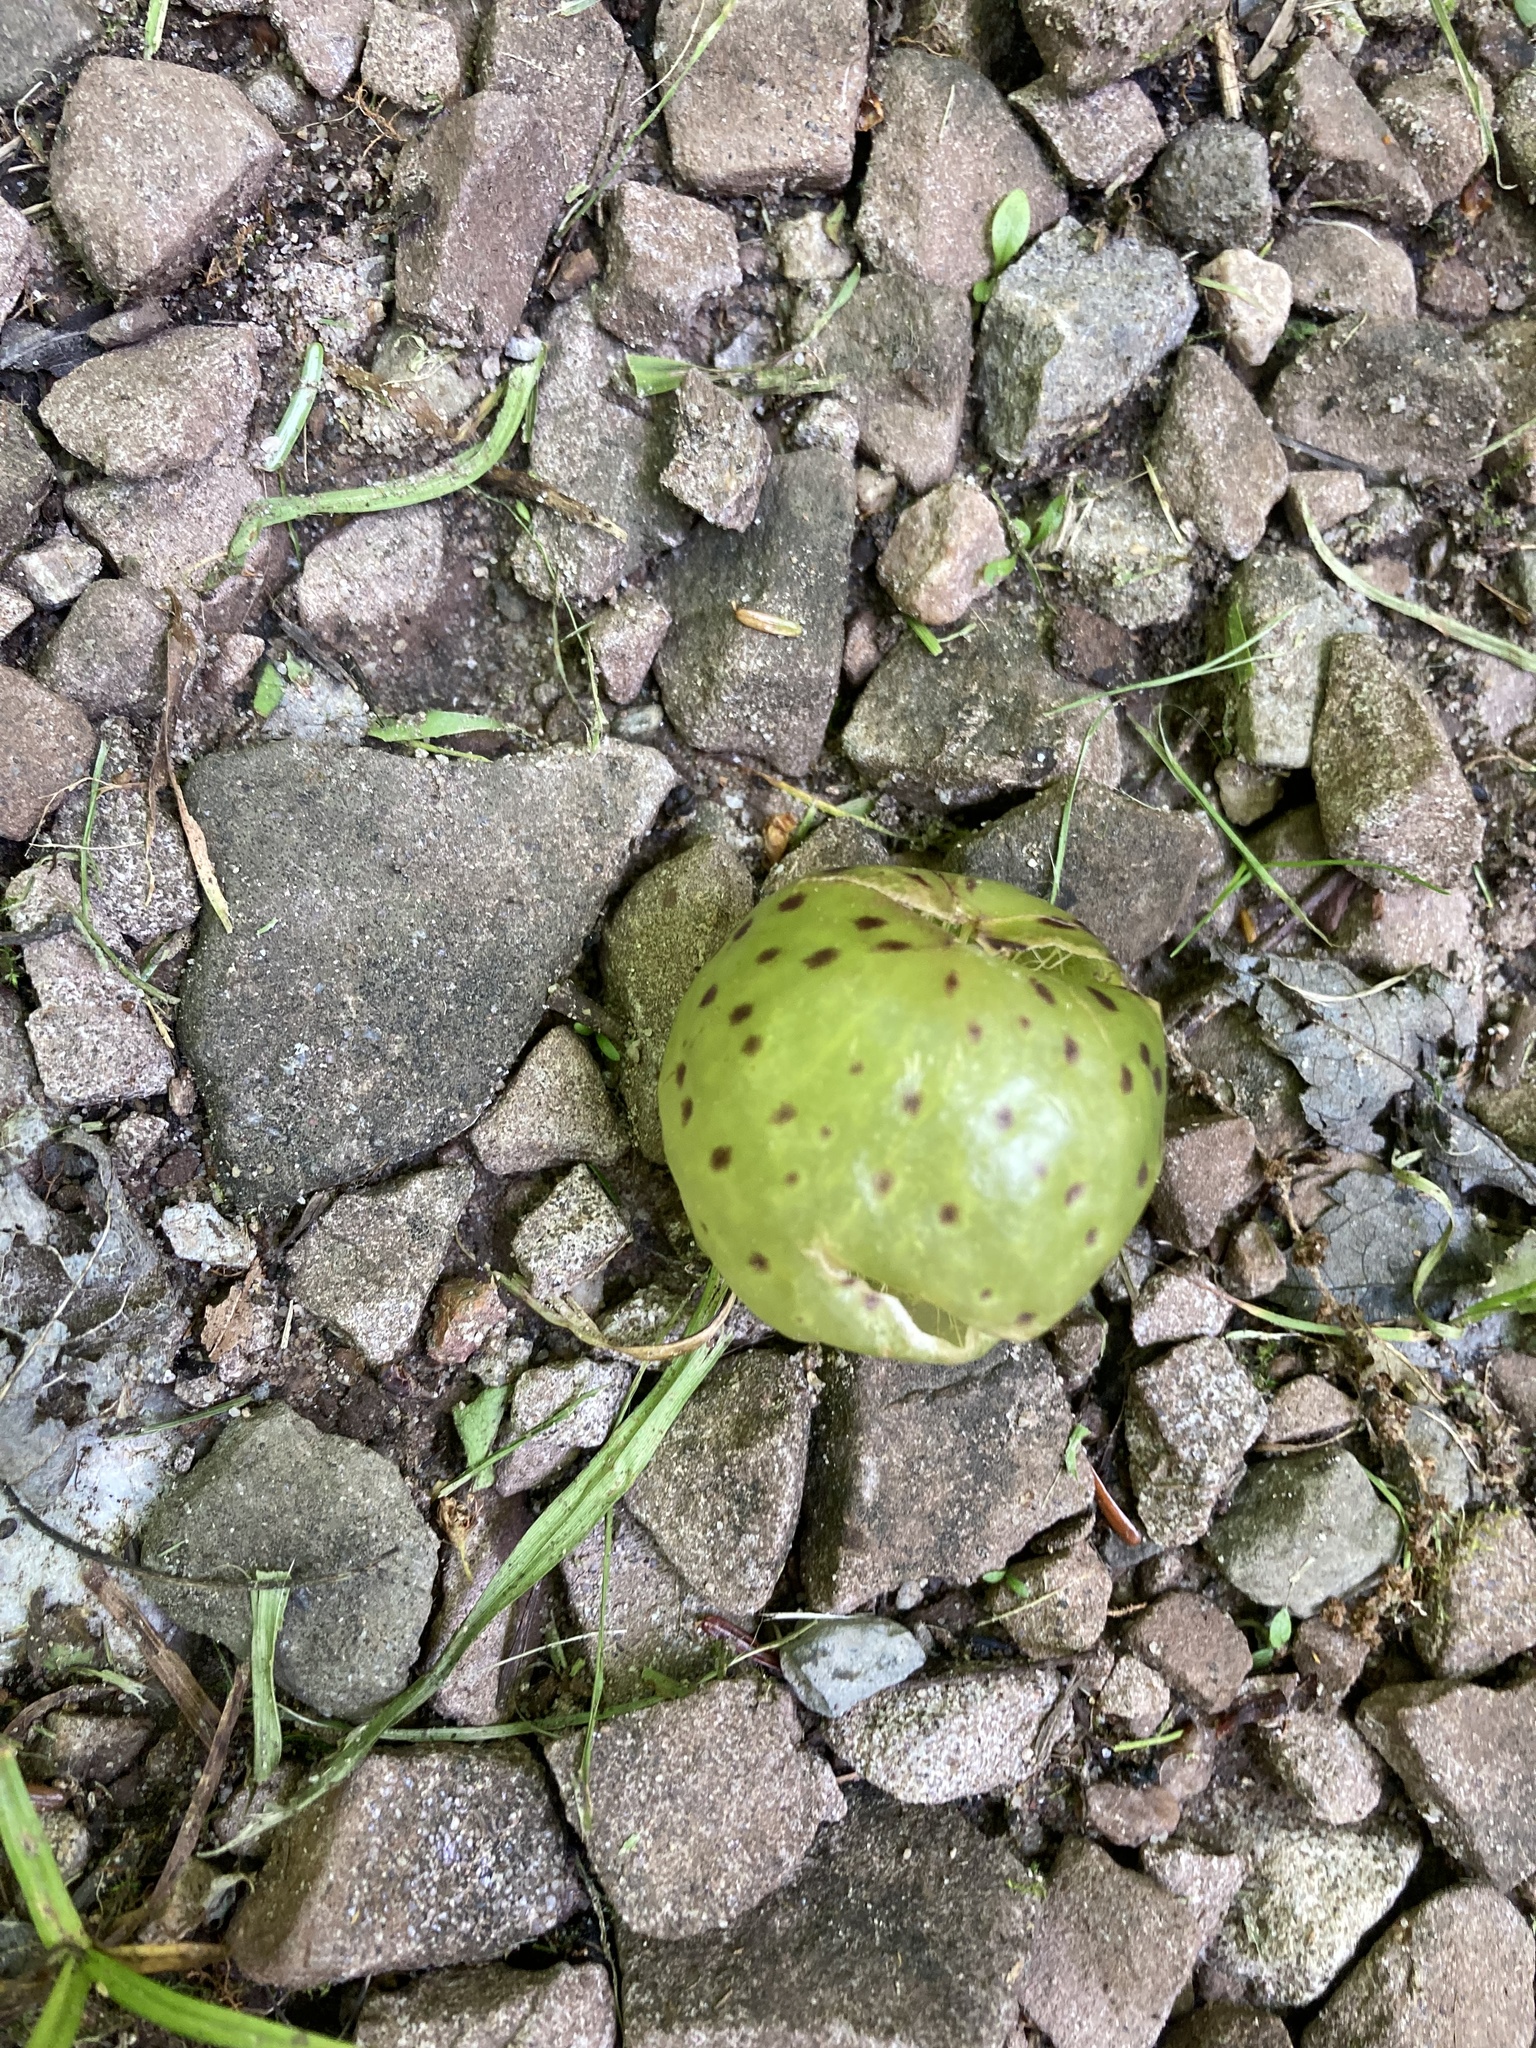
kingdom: Animalia
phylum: Arthropoda
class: Insecta
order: Hymenoptera
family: Cynipidae
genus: Amphibolips
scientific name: Amphibolips
